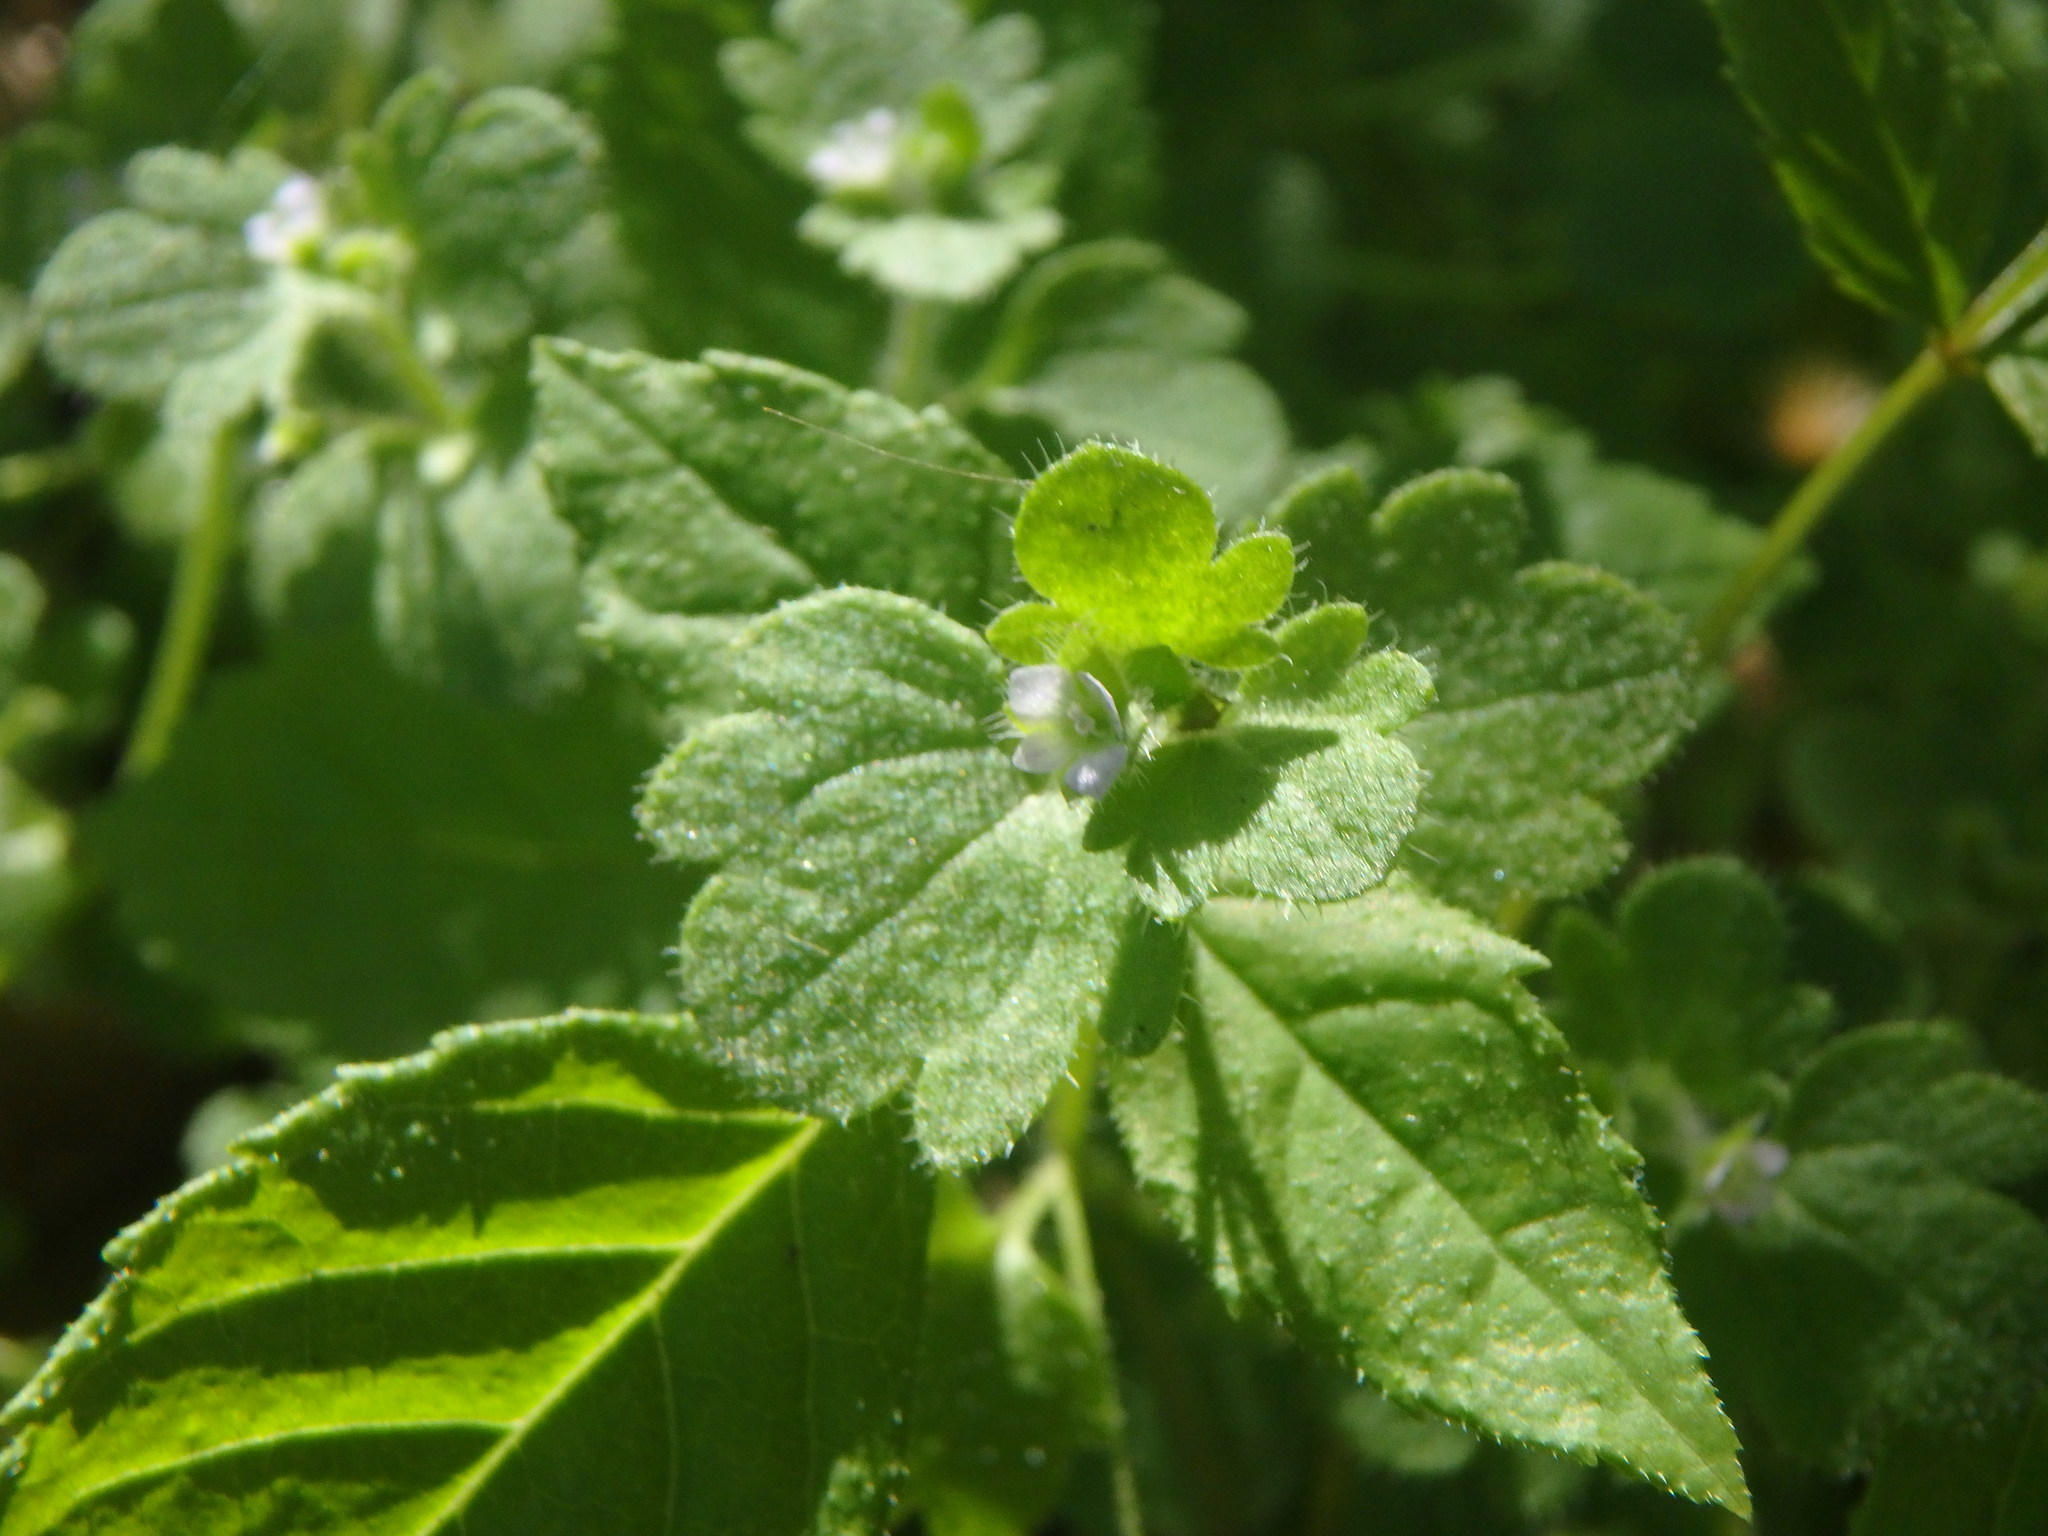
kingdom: Plantae
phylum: Tracheophyta
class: Magnoliopsida
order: Lamiales
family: Plantaginaceae
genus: Veronica
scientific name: Veronica hederifolia
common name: Ivy-leaved speedwell
